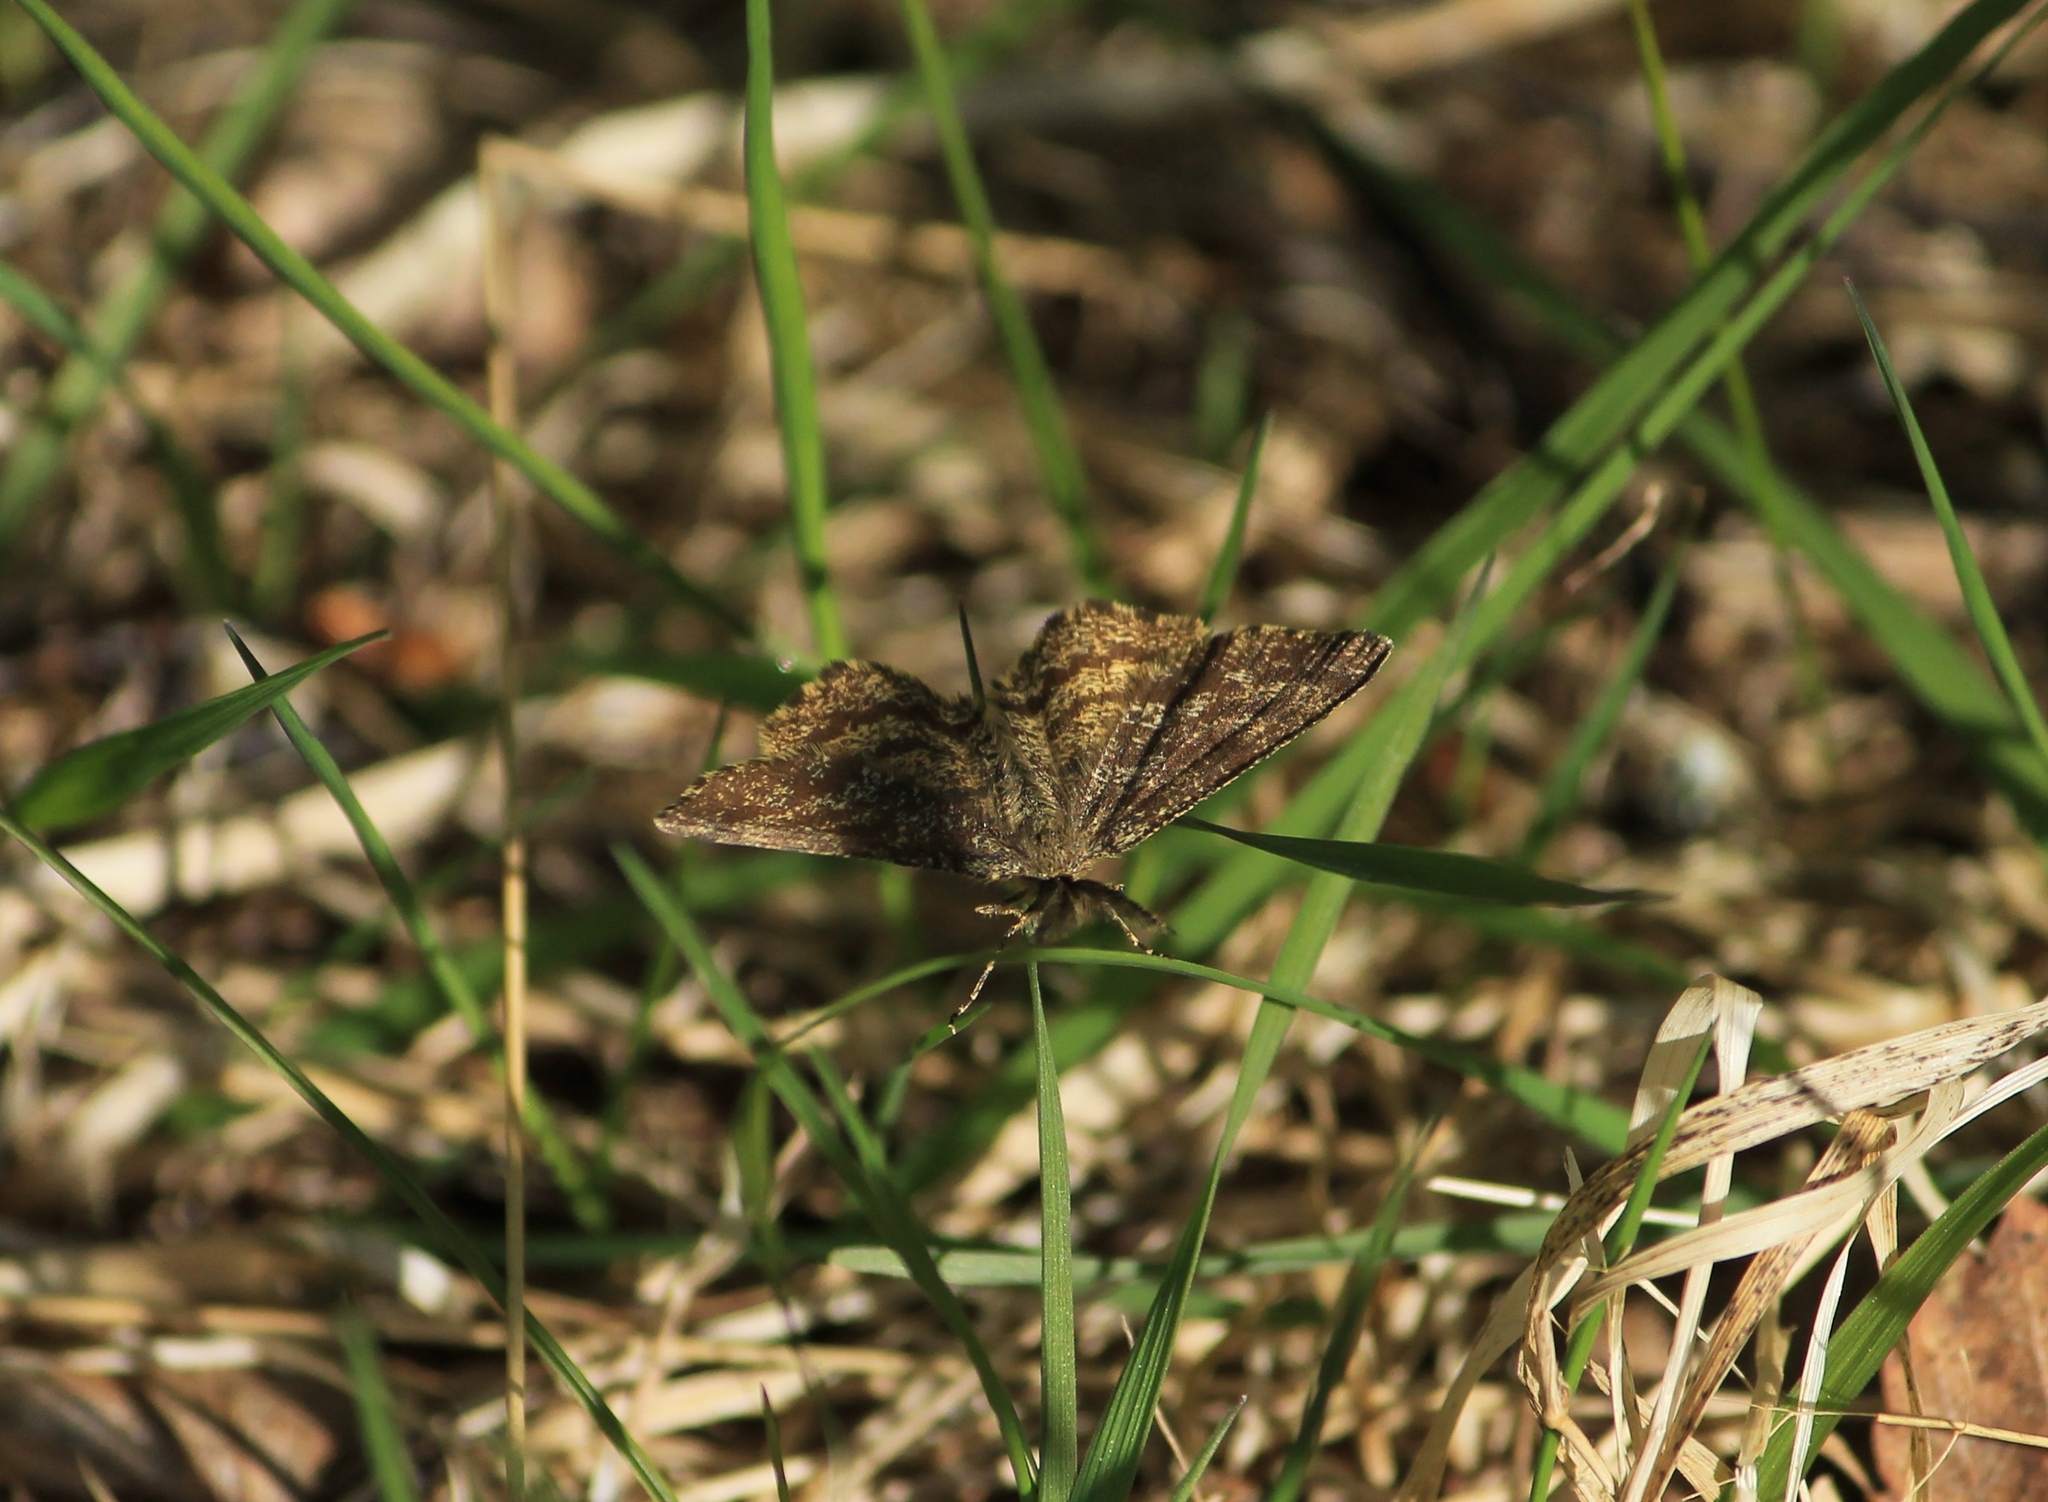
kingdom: Animalia
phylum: Arthropoda
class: Insecta
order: Lepidoptera
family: Geometridae
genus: Ematurga
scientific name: Ematurga atomaria
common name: Common heath
